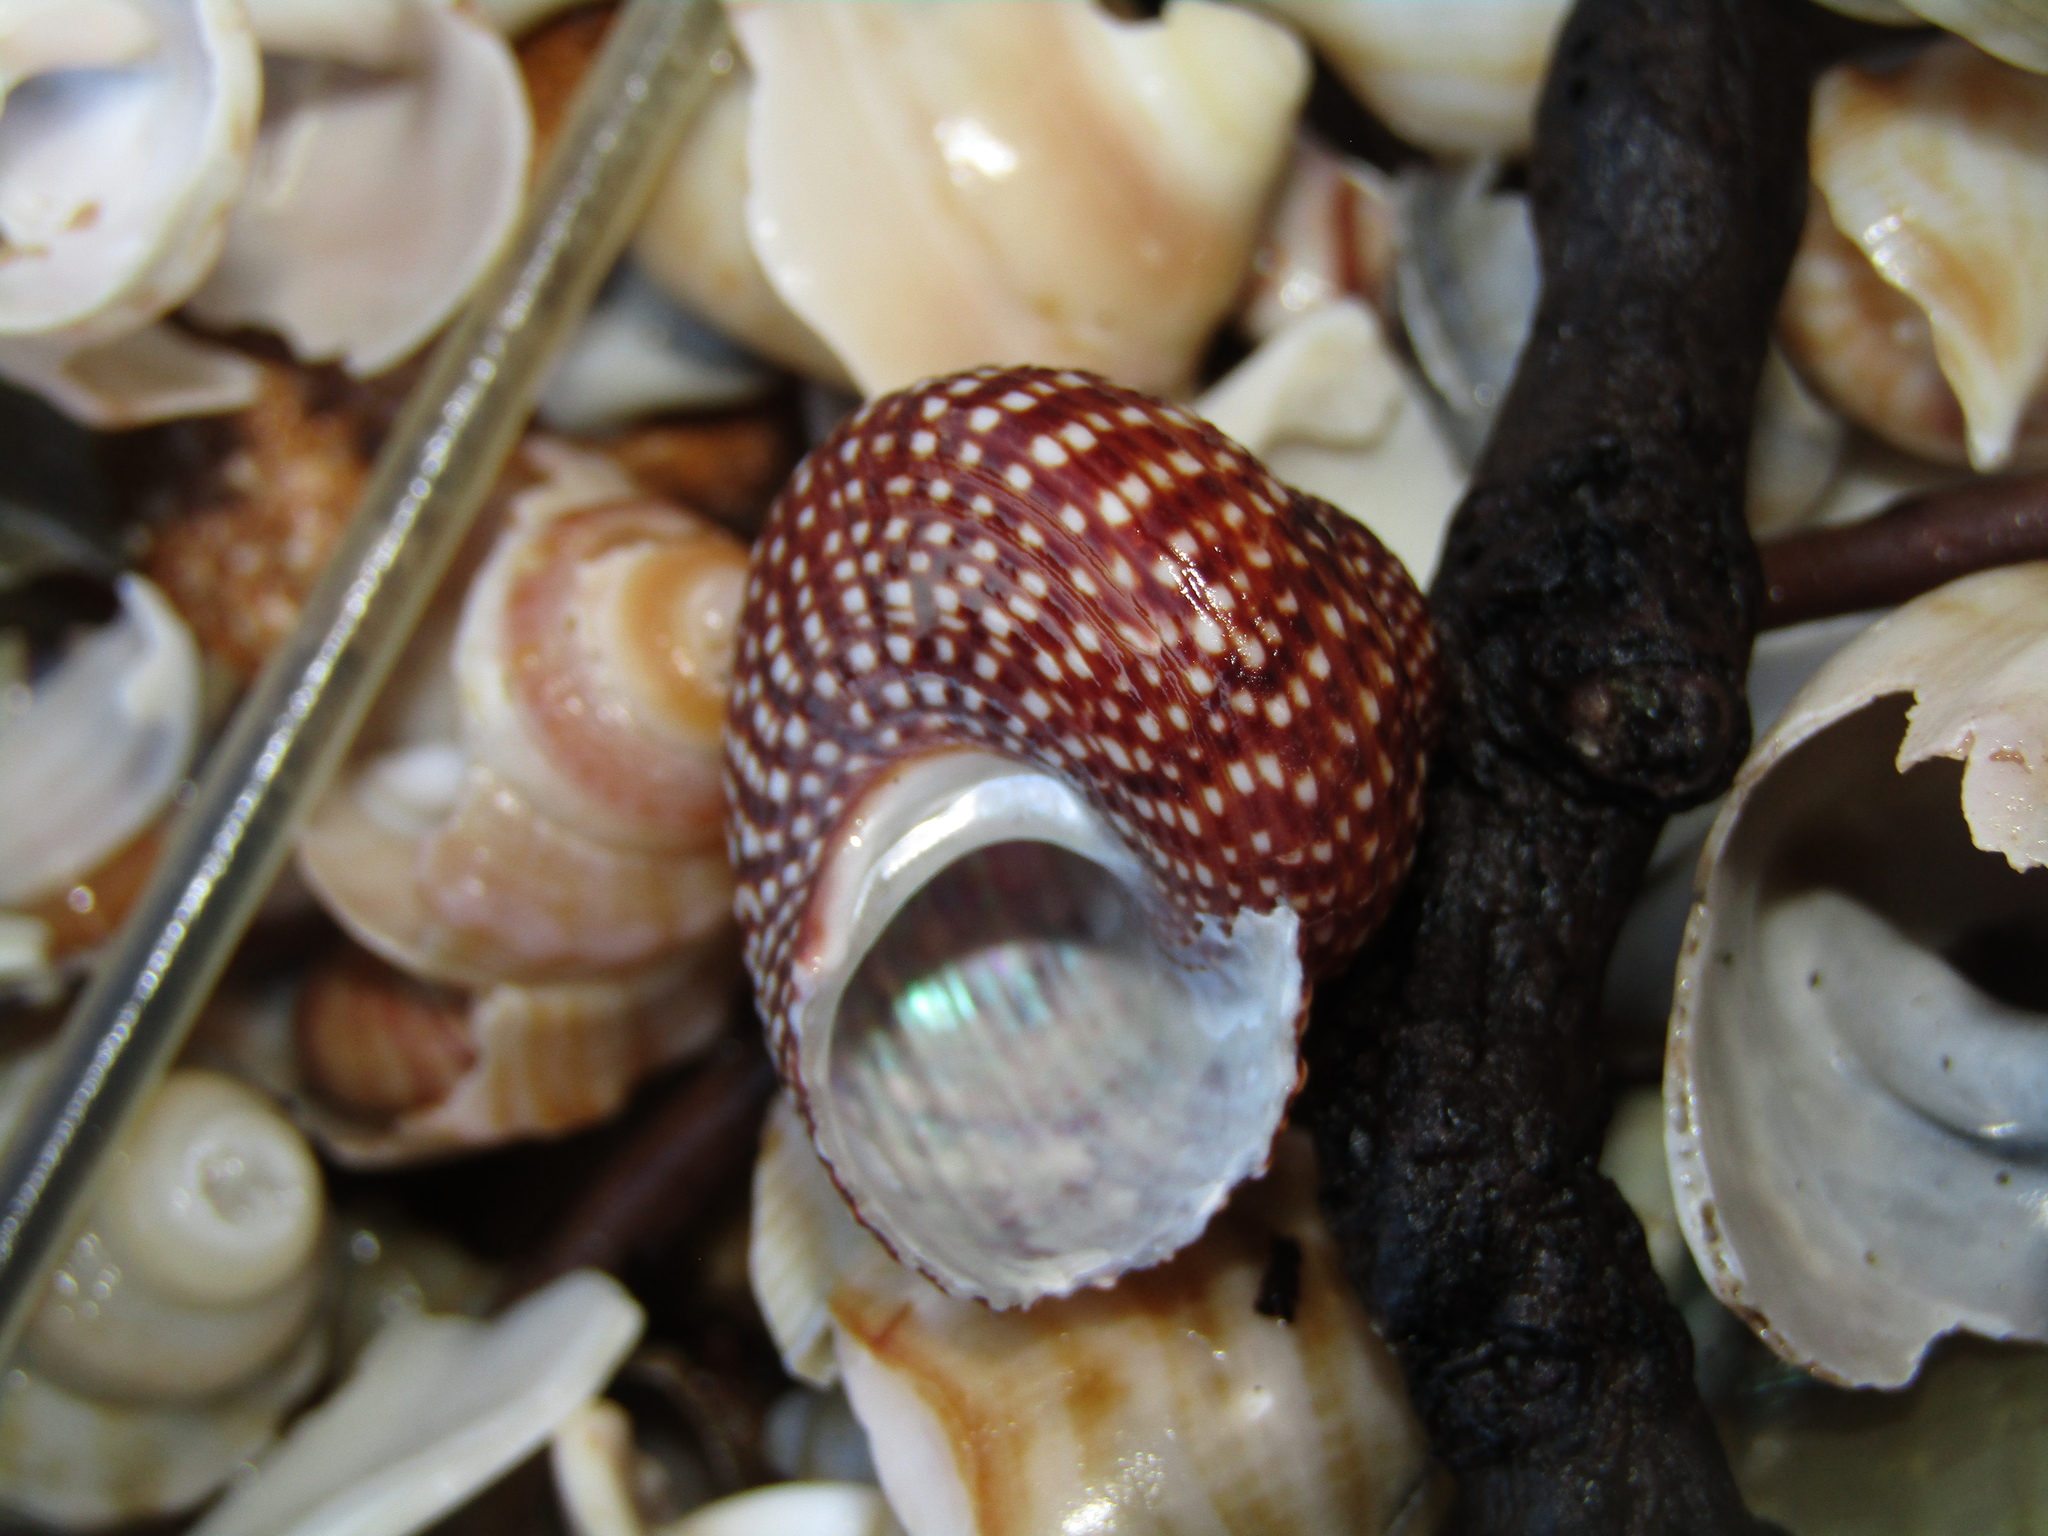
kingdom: Animalia
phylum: Mollusca
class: Gastropoda
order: Trochida
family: Calliostomatidae
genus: Maurea
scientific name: Maurea punctulata
